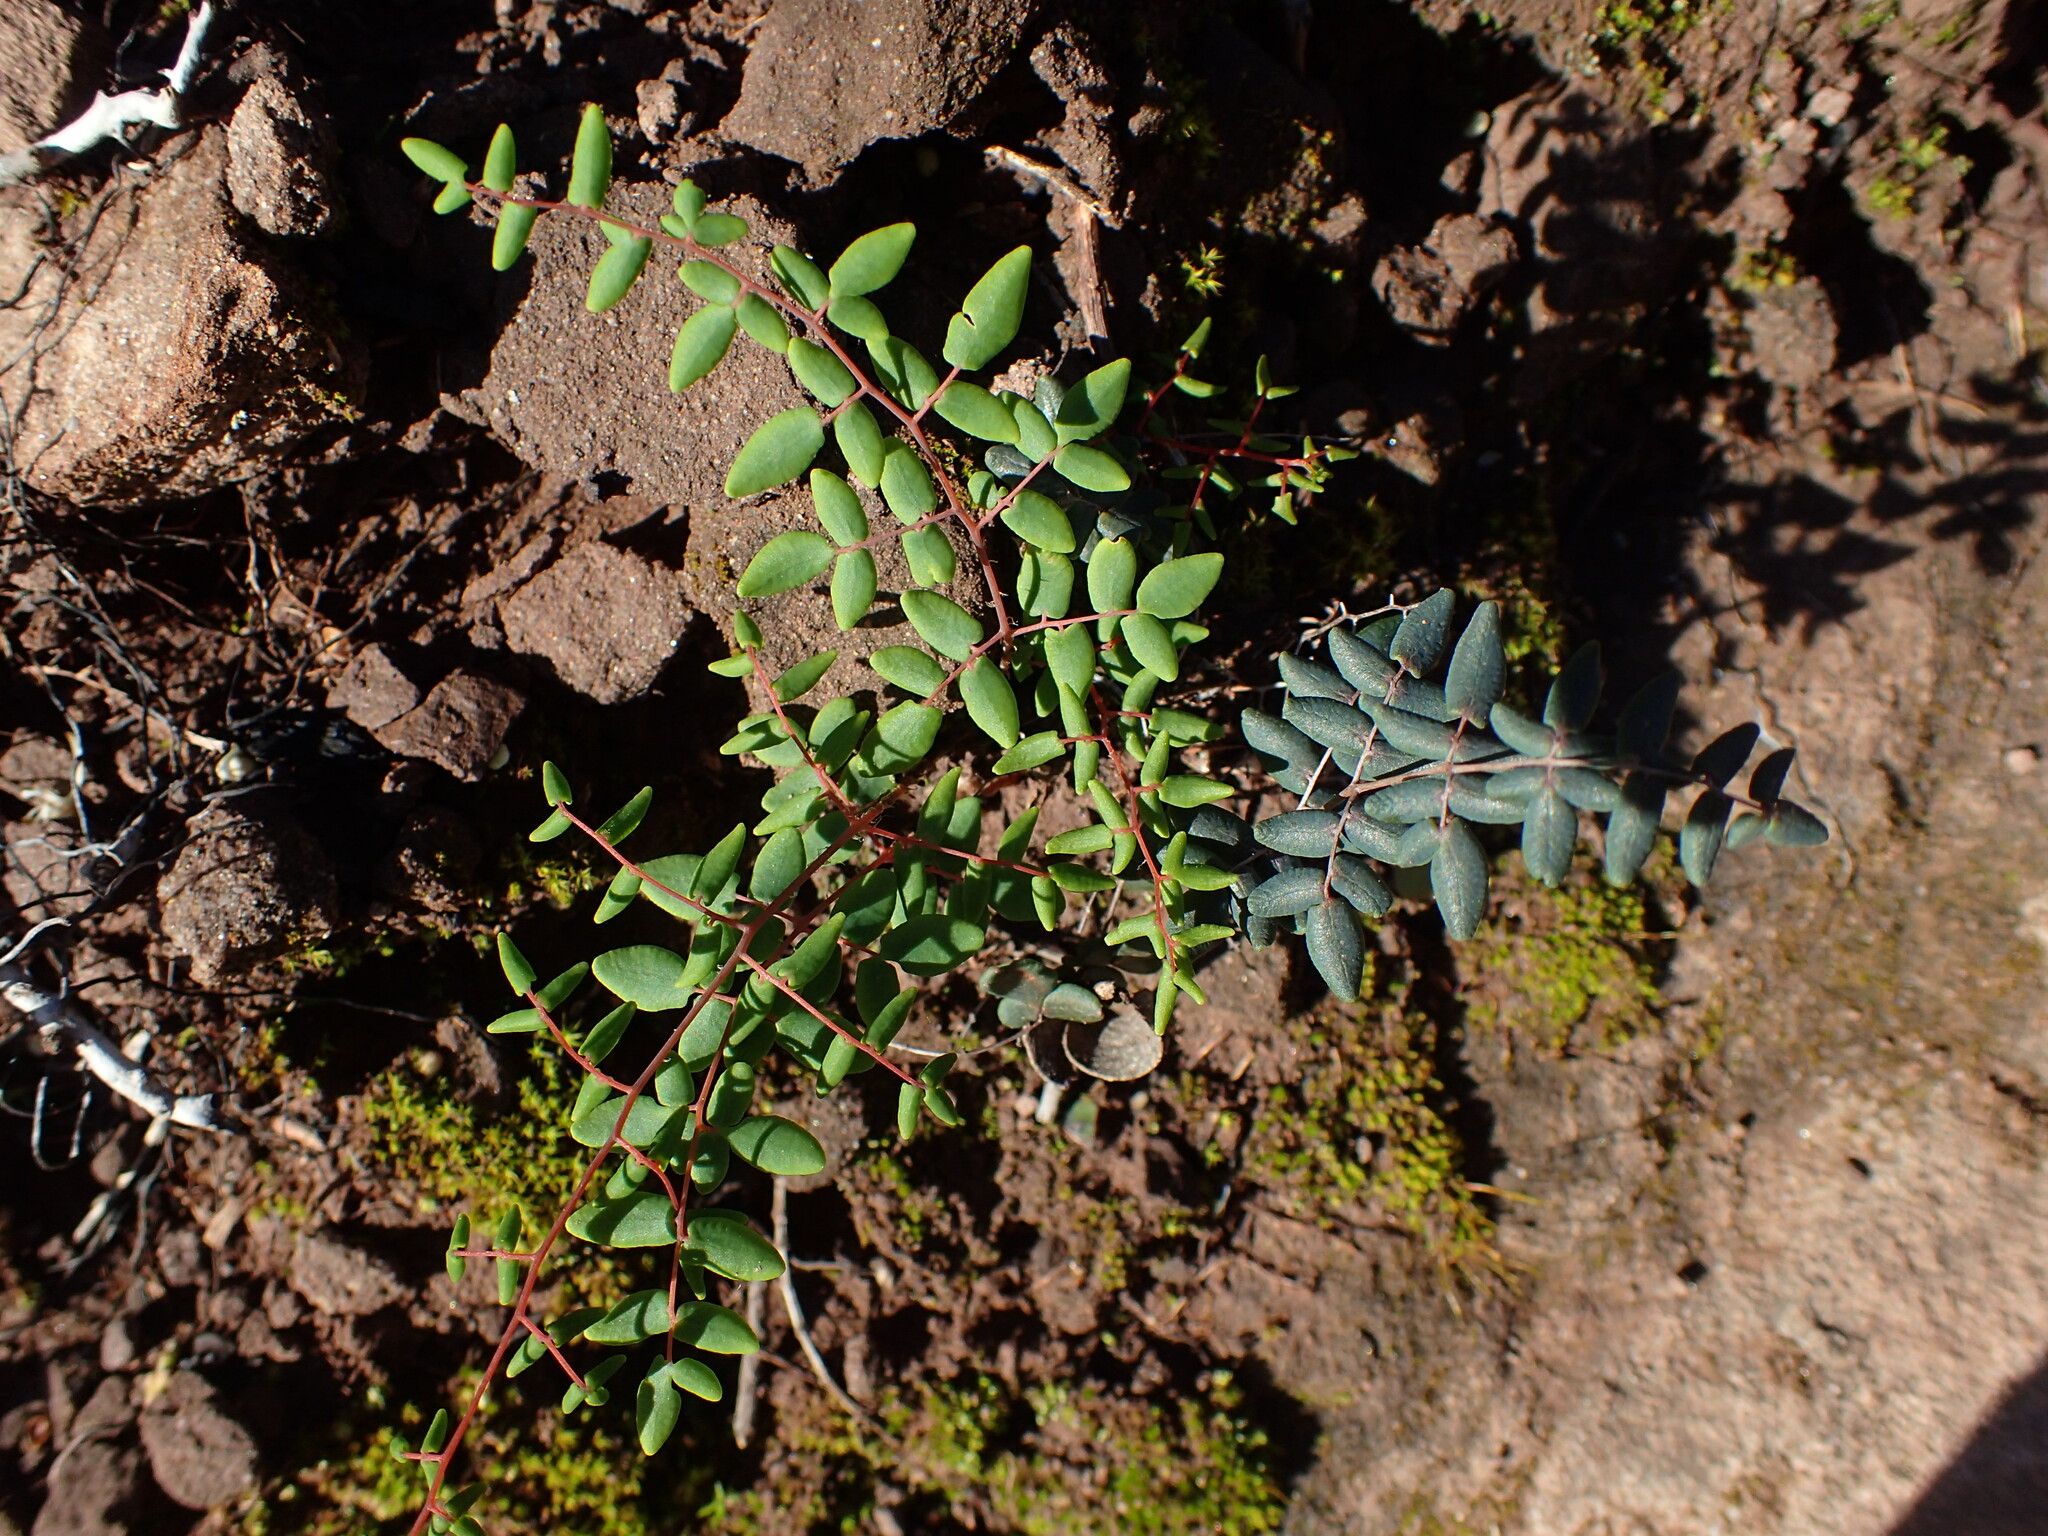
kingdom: Plantae
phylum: Tracheophyta
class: Polypodiopsida
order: Polypodiales
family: Pteridaceae
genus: Pellaea
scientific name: Pellaea andromedifolia
